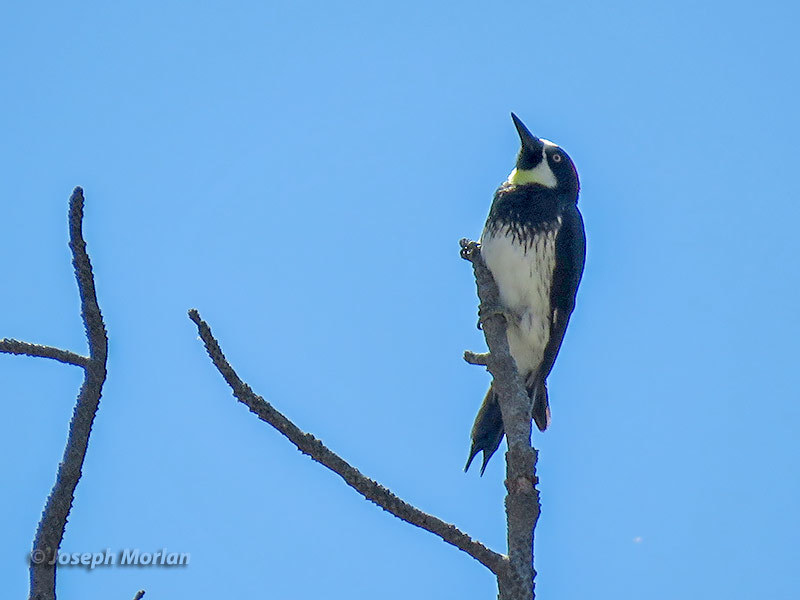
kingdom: Animalia
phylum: Chordata
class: Aves
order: Piciformes
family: Picidae
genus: Melanerpes
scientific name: Melanerpes formicivorus
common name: Acorn woodpecker
